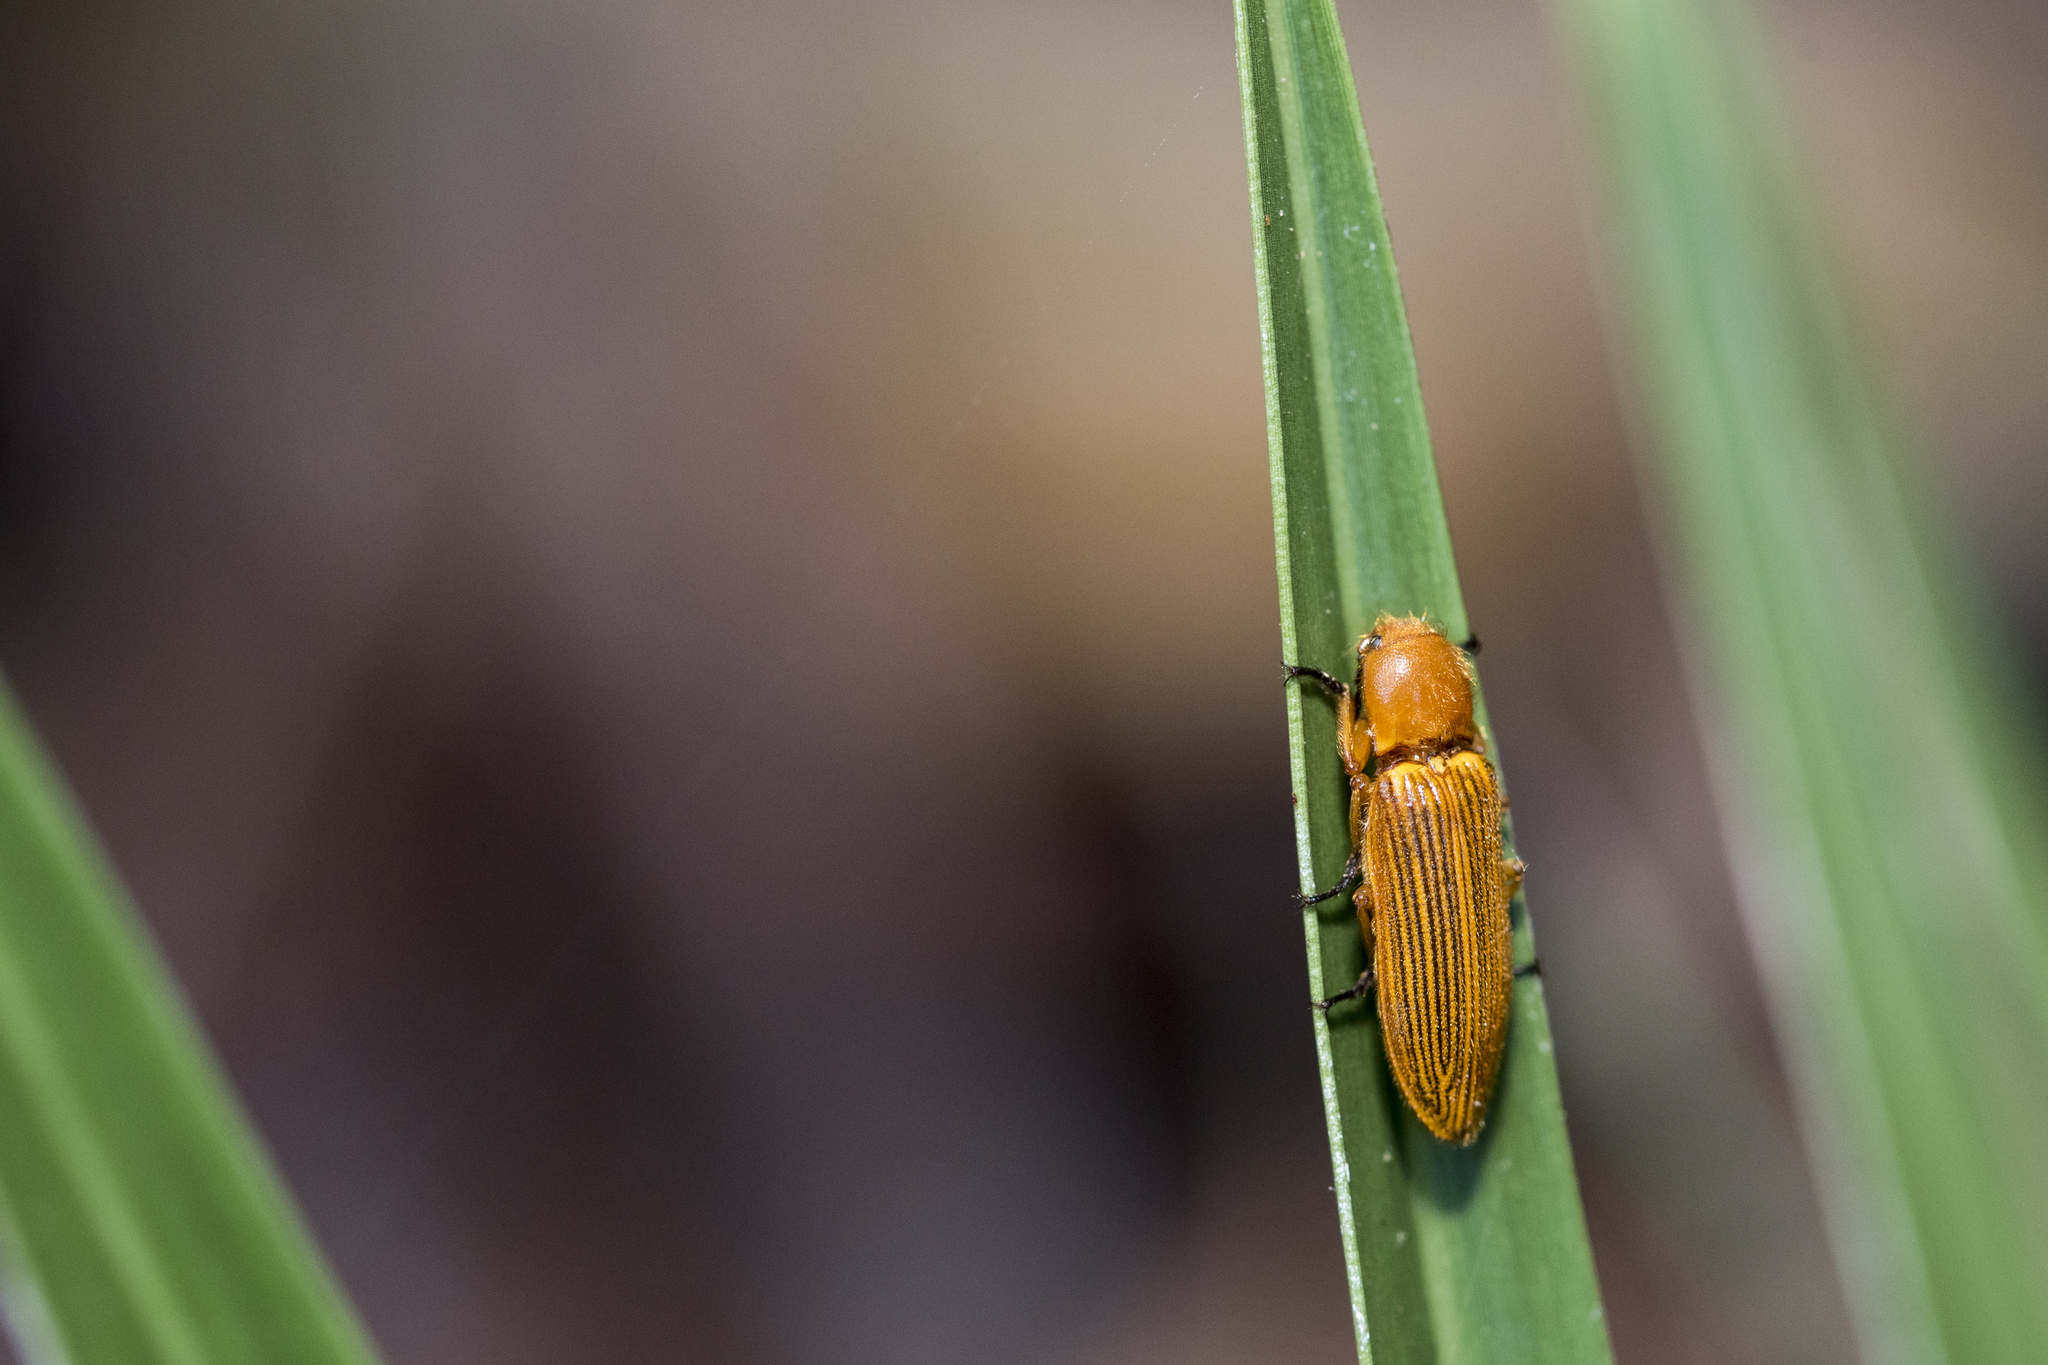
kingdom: Animalia
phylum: Arthropoda
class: Insecta
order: Coleoptera
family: Elateridae
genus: Hemiops
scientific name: Hemiops flava
